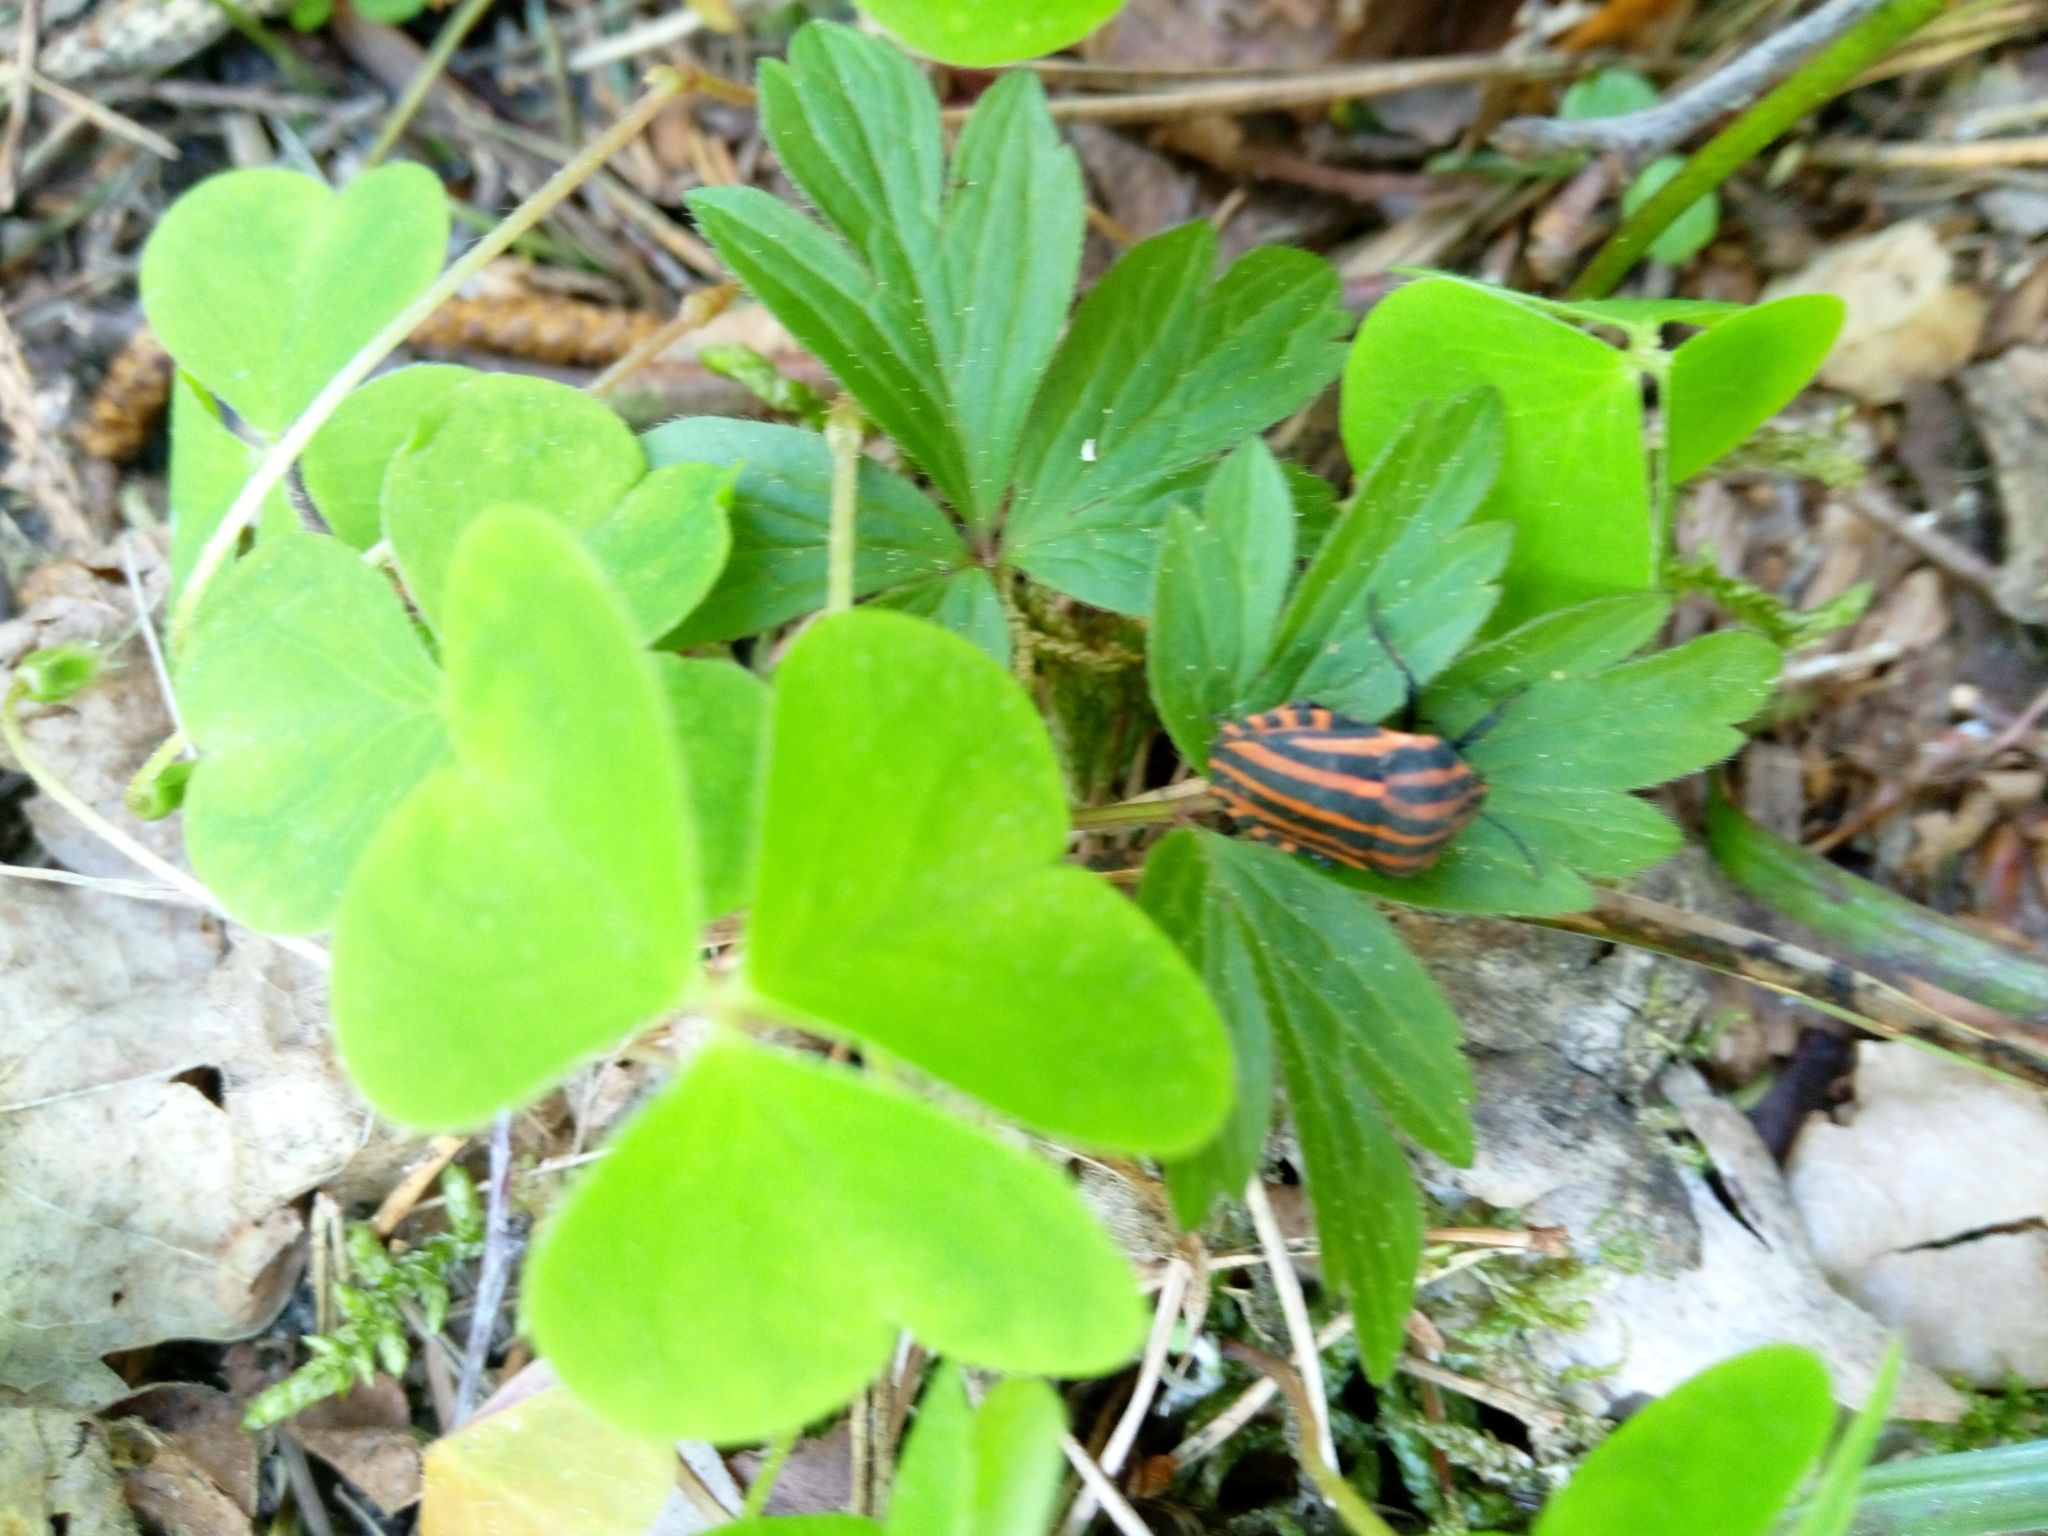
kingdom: Animalia
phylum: Arthropoda
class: Insecta
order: Hemiptera
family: Pentatomidae
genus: Graphosoma
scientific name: Graphosoma italicum
